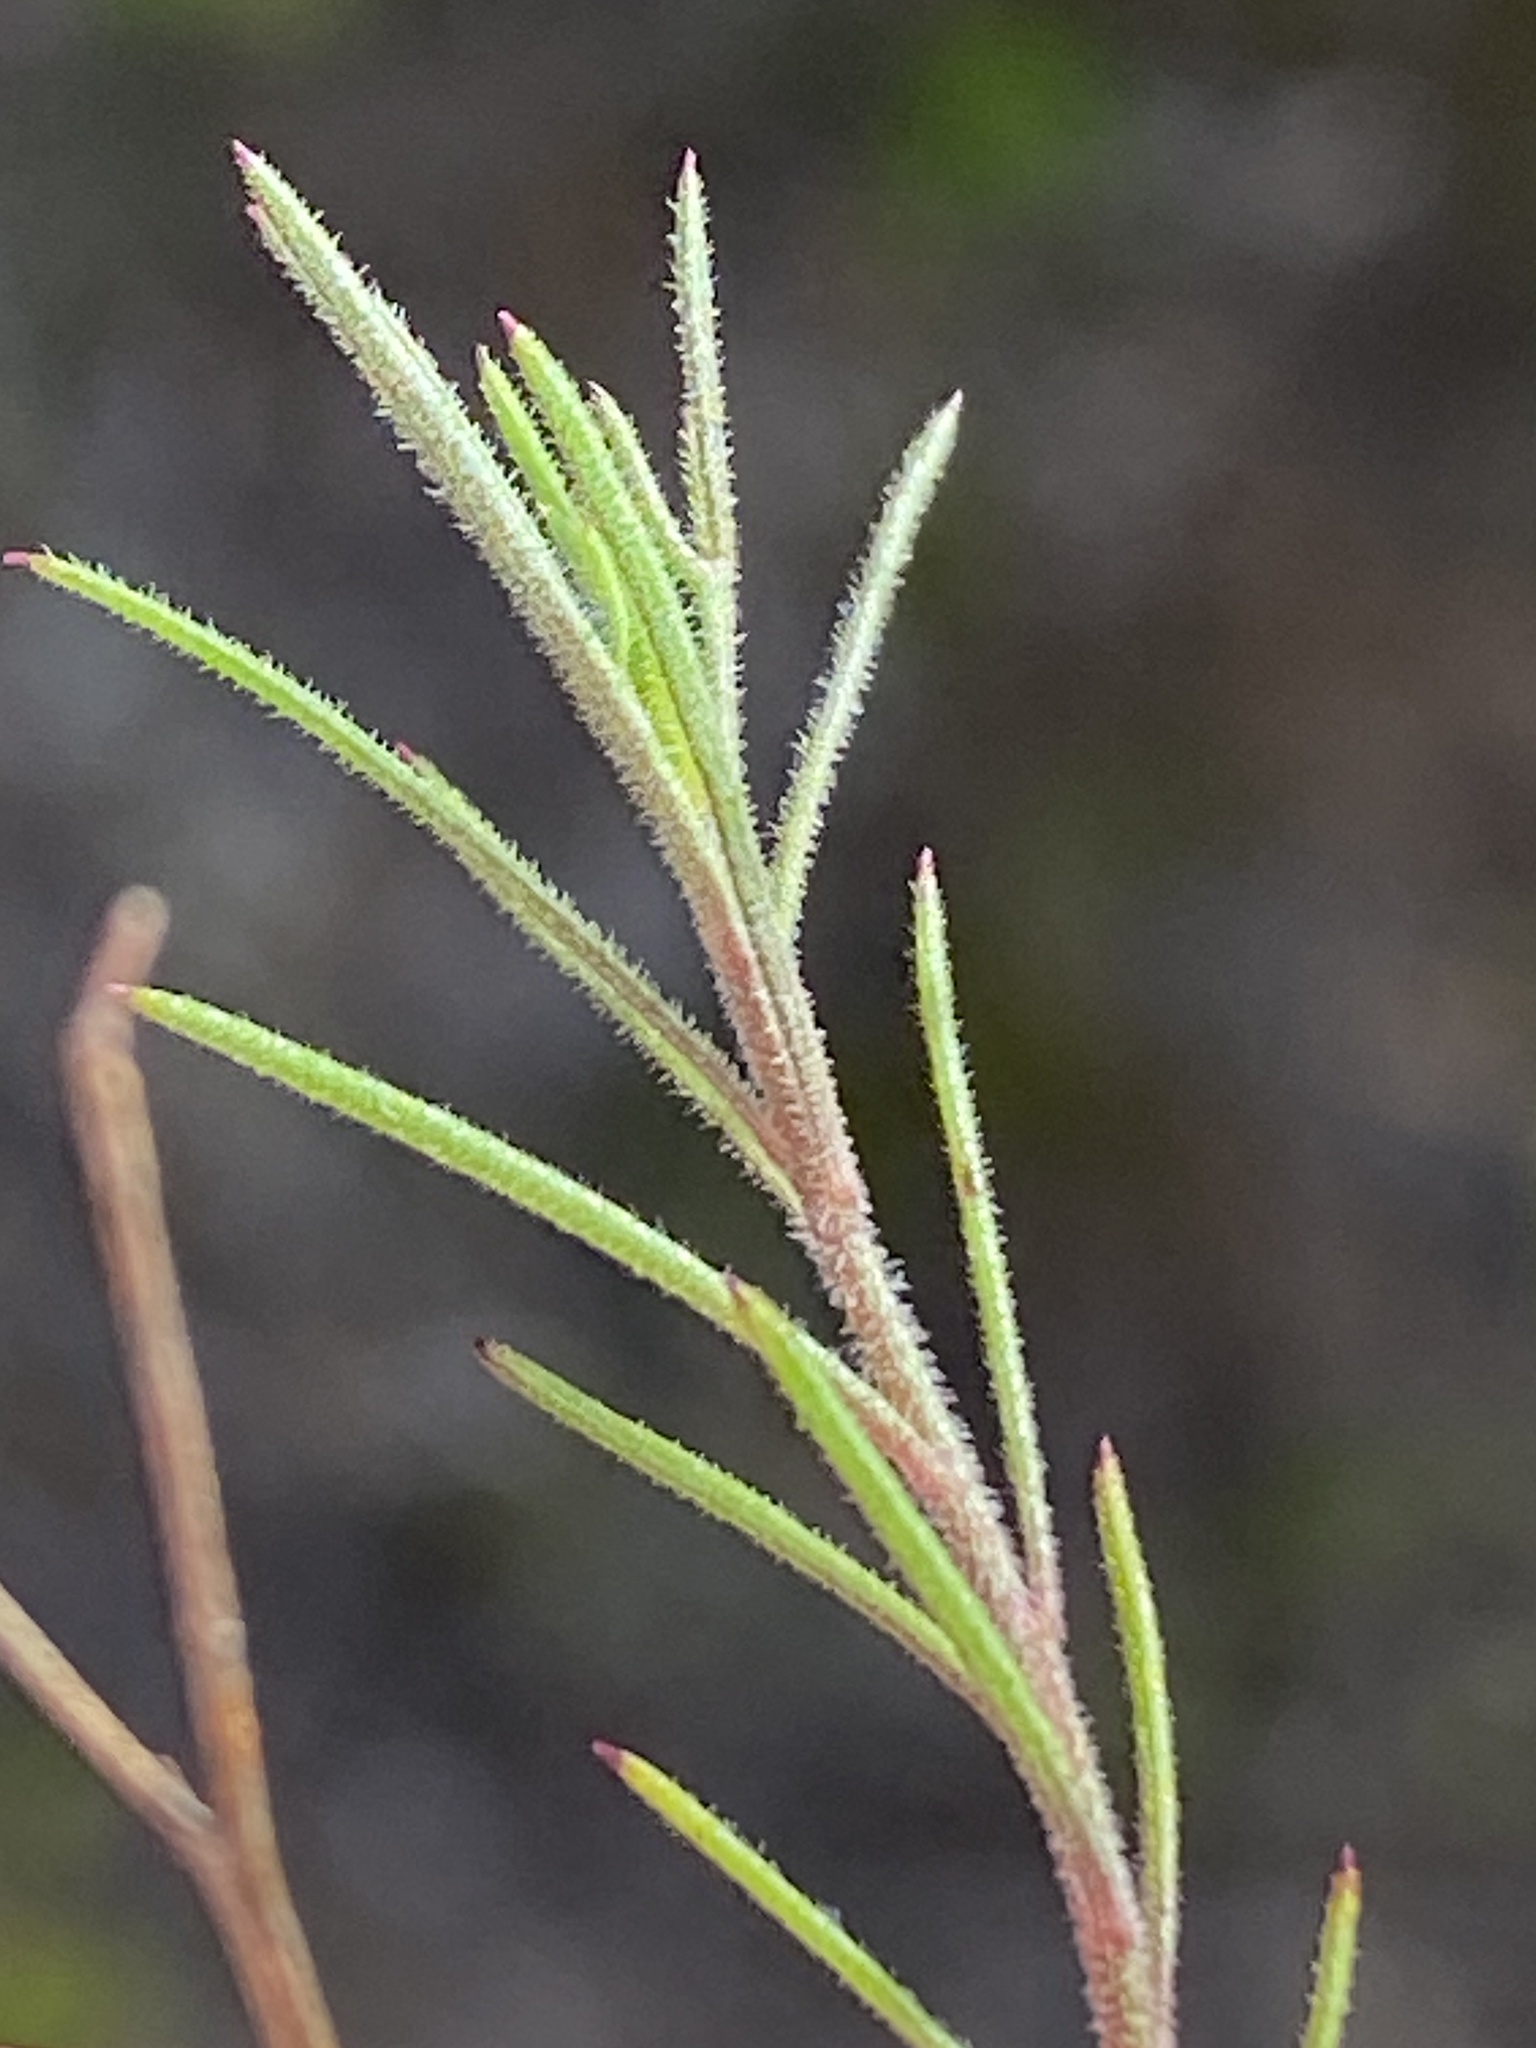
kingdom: Plantae
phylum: Tracheophyta
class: Magnoliopsida
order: Asterales
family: Campanulaceae
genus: Lobelia
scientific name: Lobelia setacea
